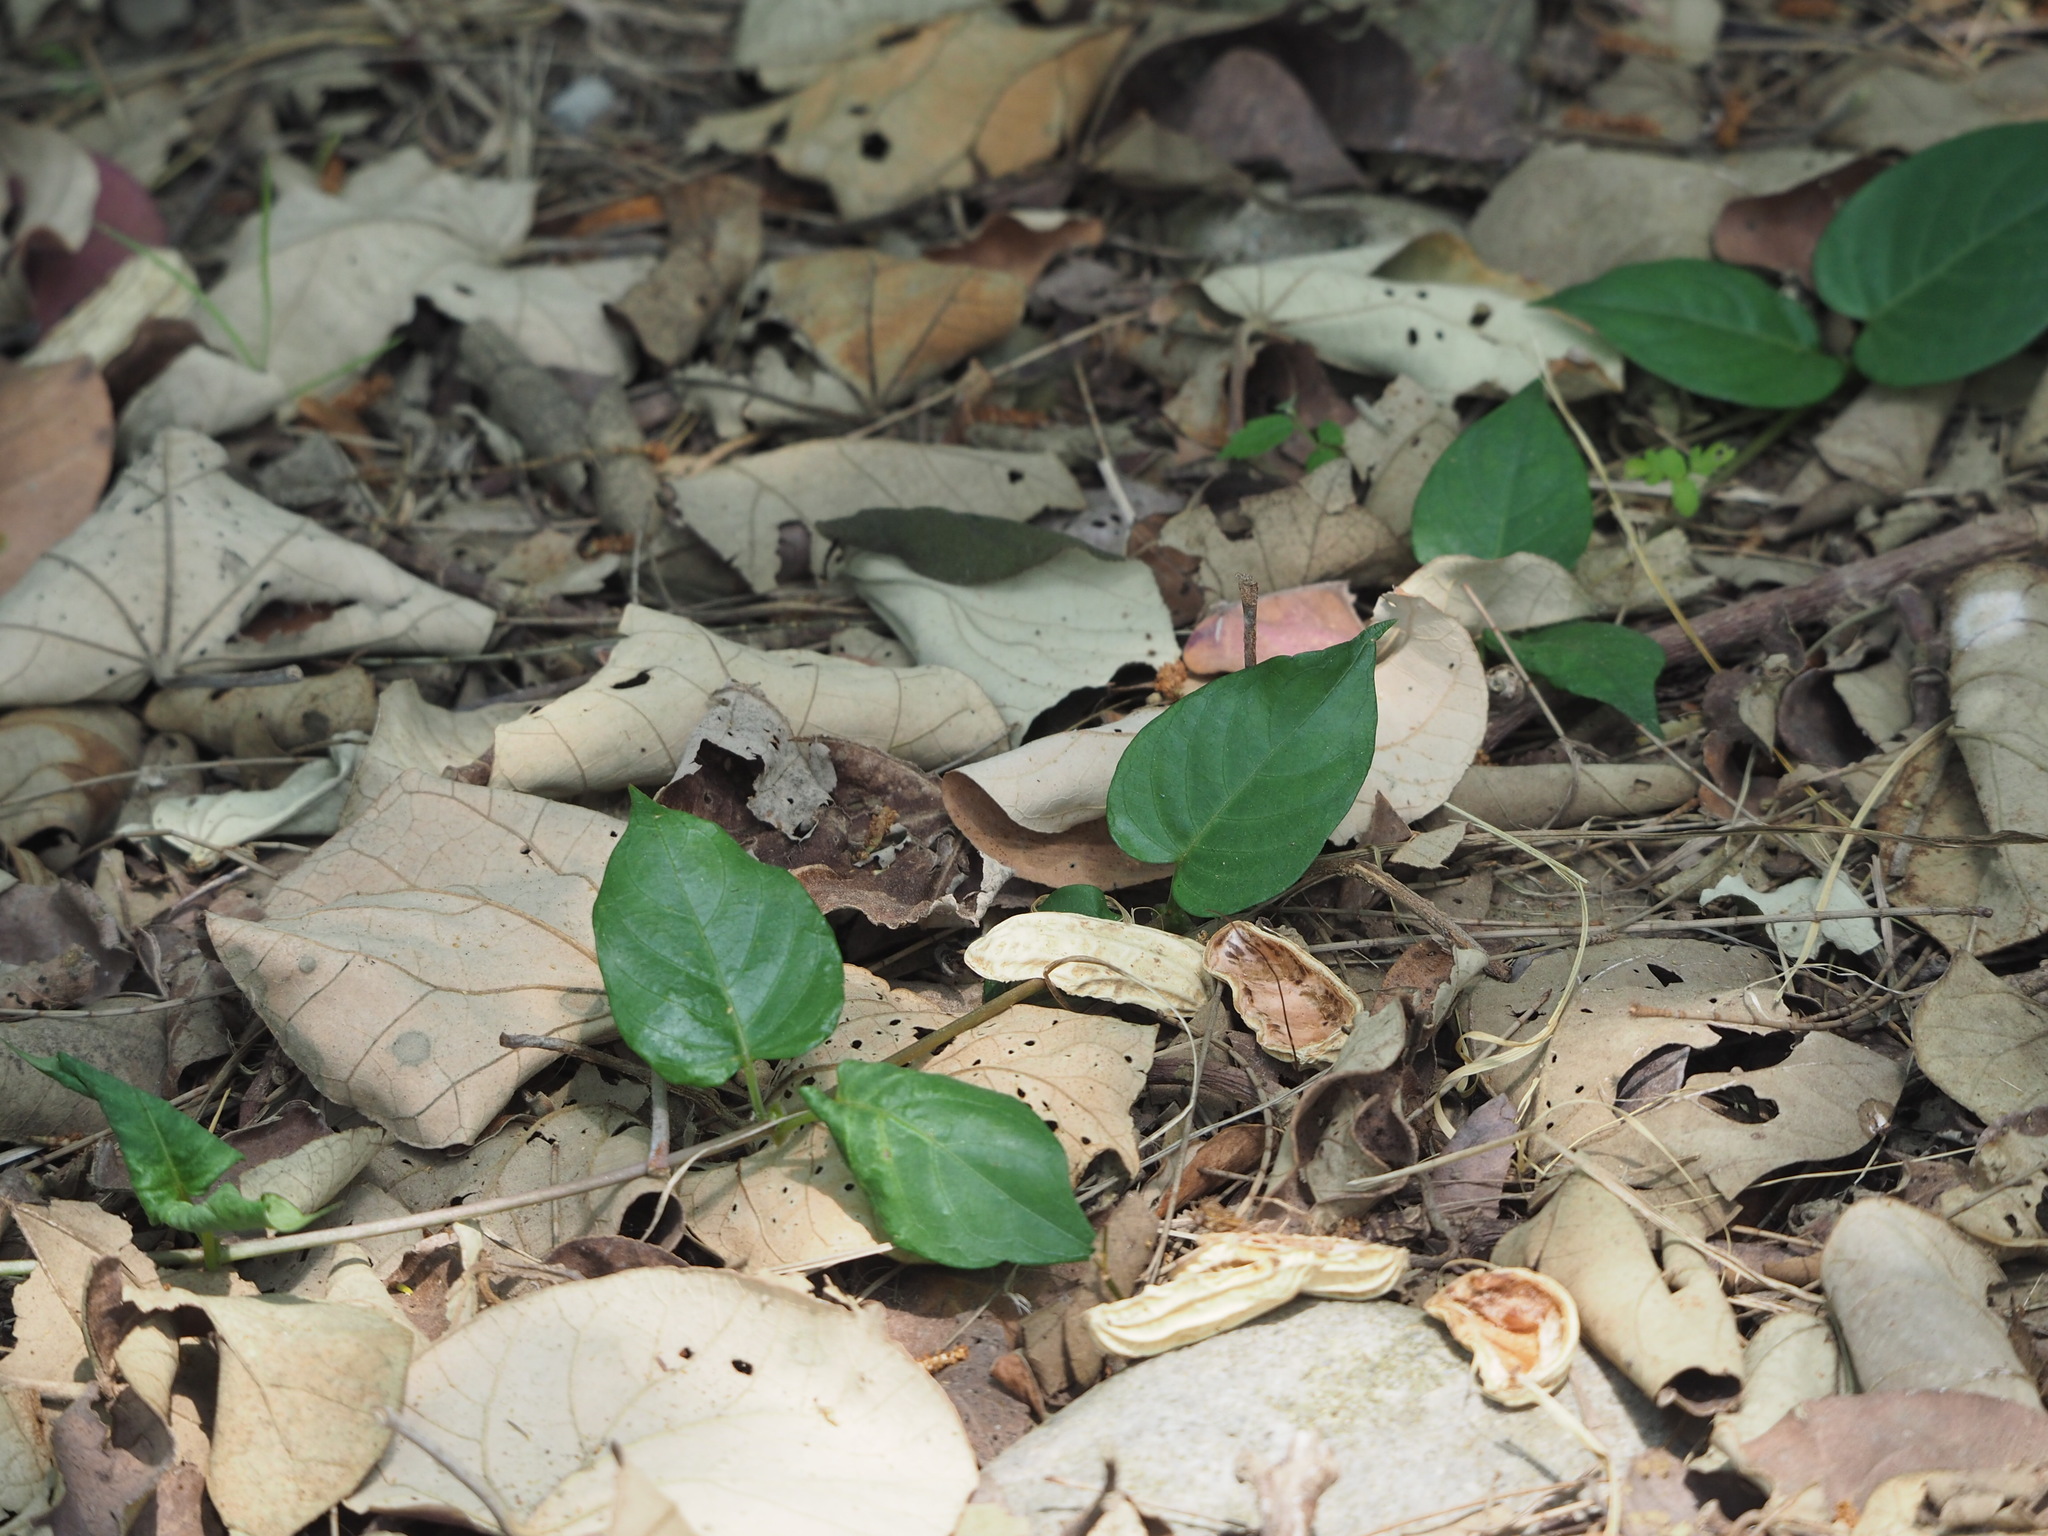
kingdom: Plantae
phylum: Tracheophyta
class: Magnoliopsida
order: Gentianales
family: Rubiaceae
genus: Paederia
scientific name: Paederia foetida
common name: Stinkvine
